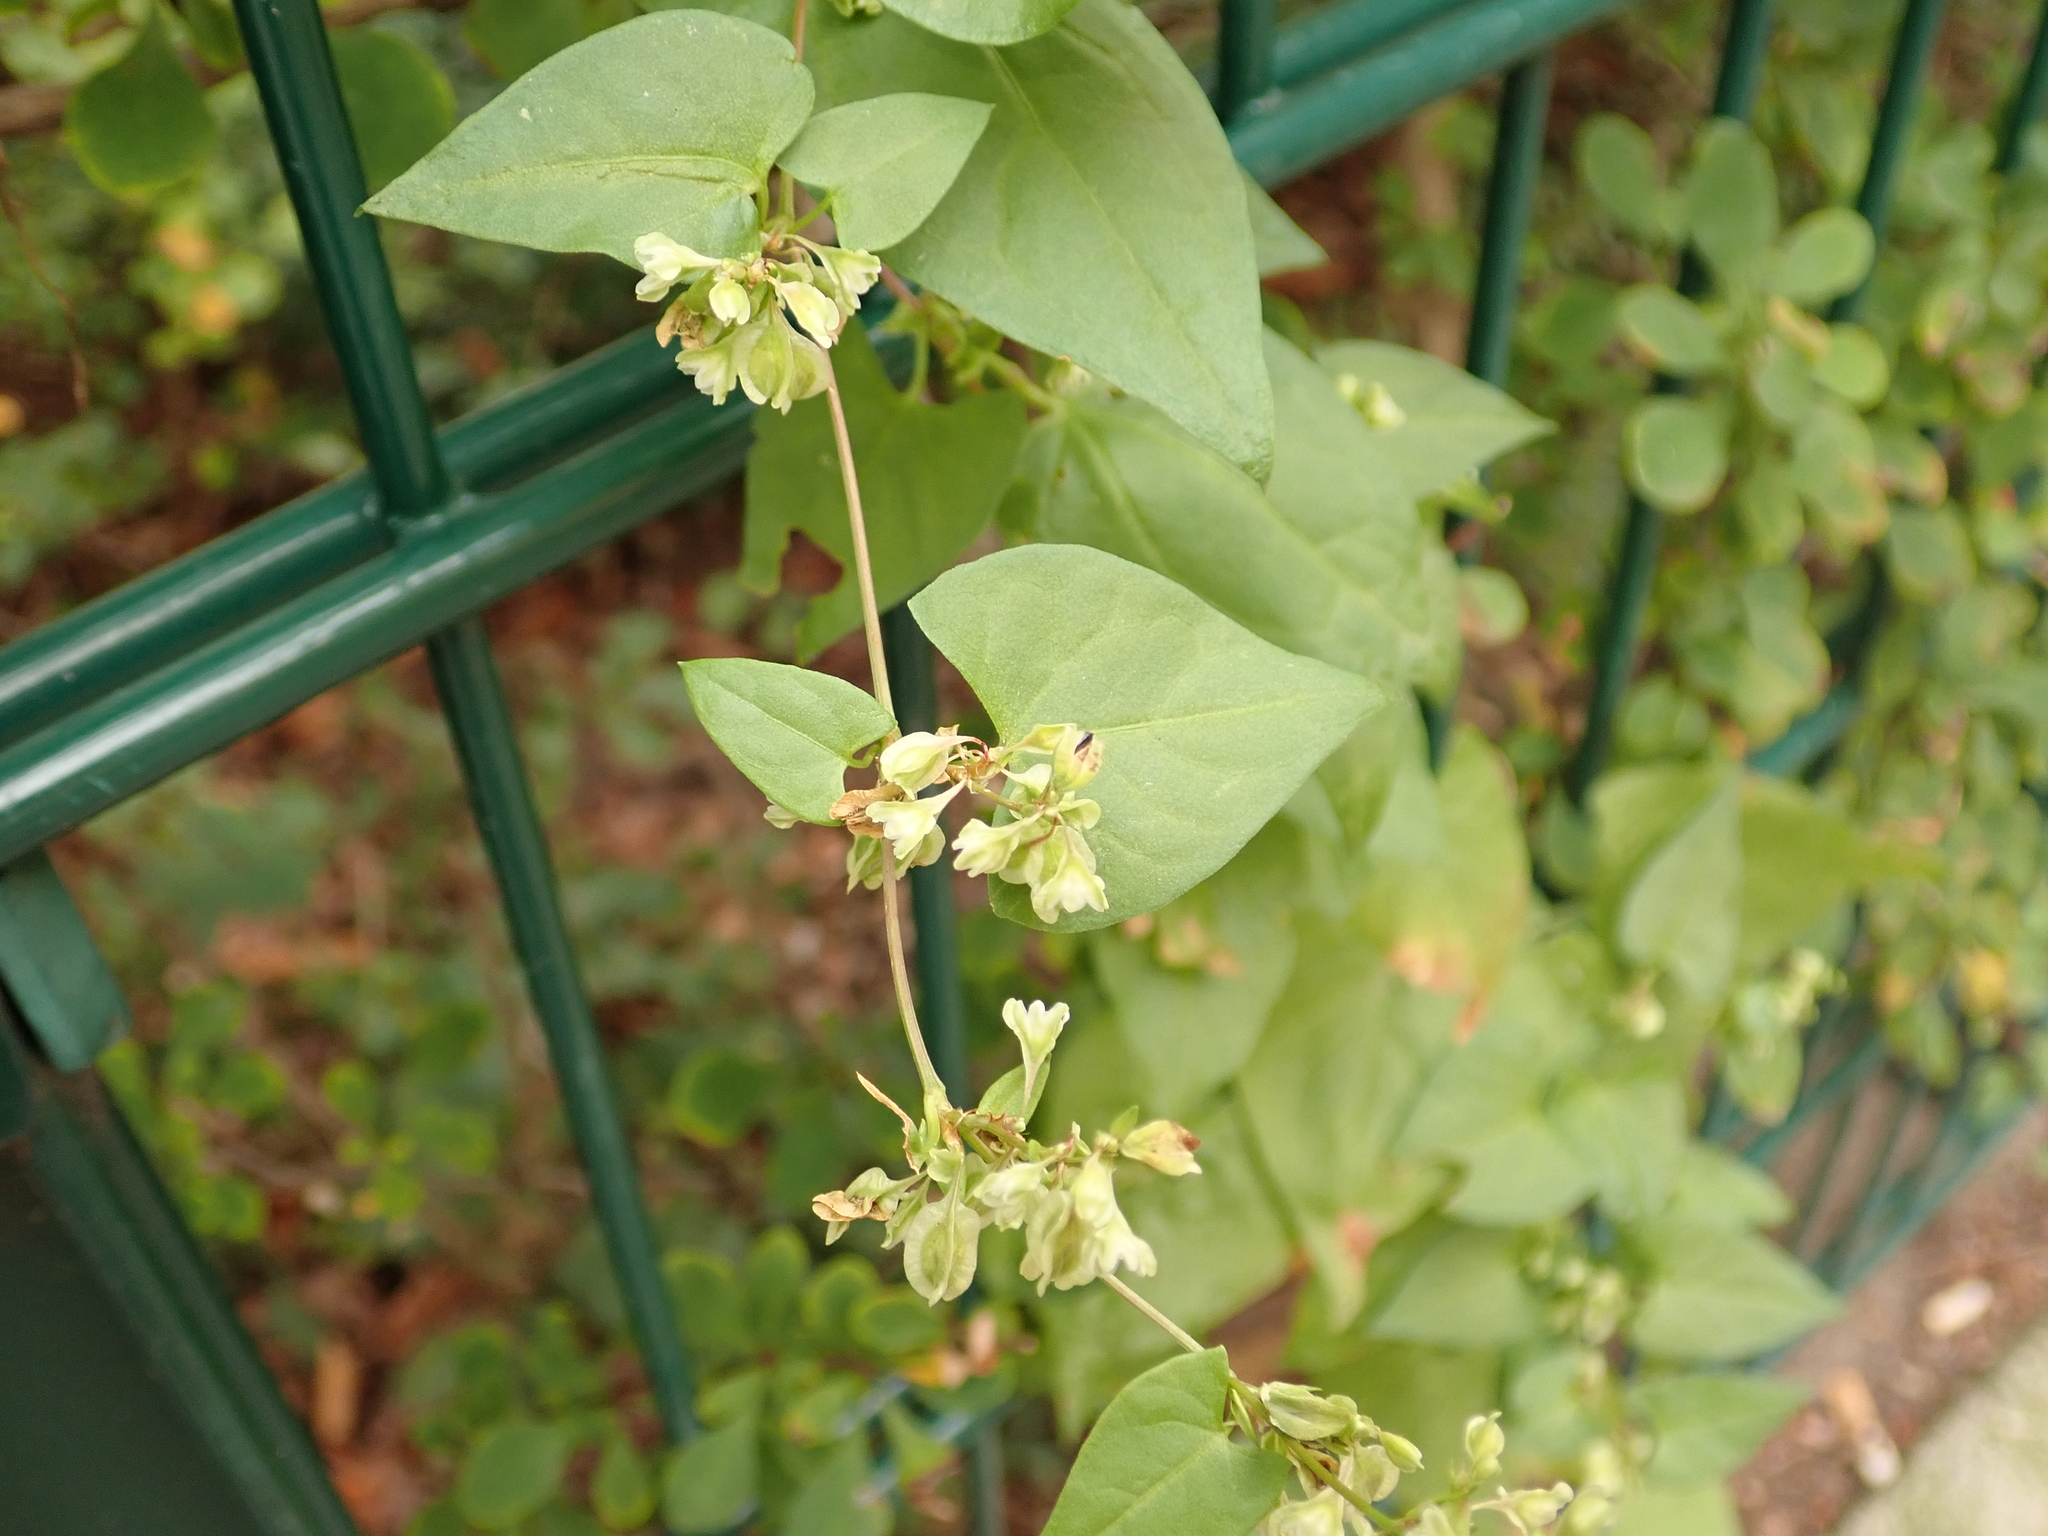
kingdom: Plantae
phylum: Tracheophyta
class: Magnoliopsida
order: Caryophyllales
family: Polygonaceae
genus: Fallopia
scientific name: Fallopia dumetorum
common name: Copse-bindweed
